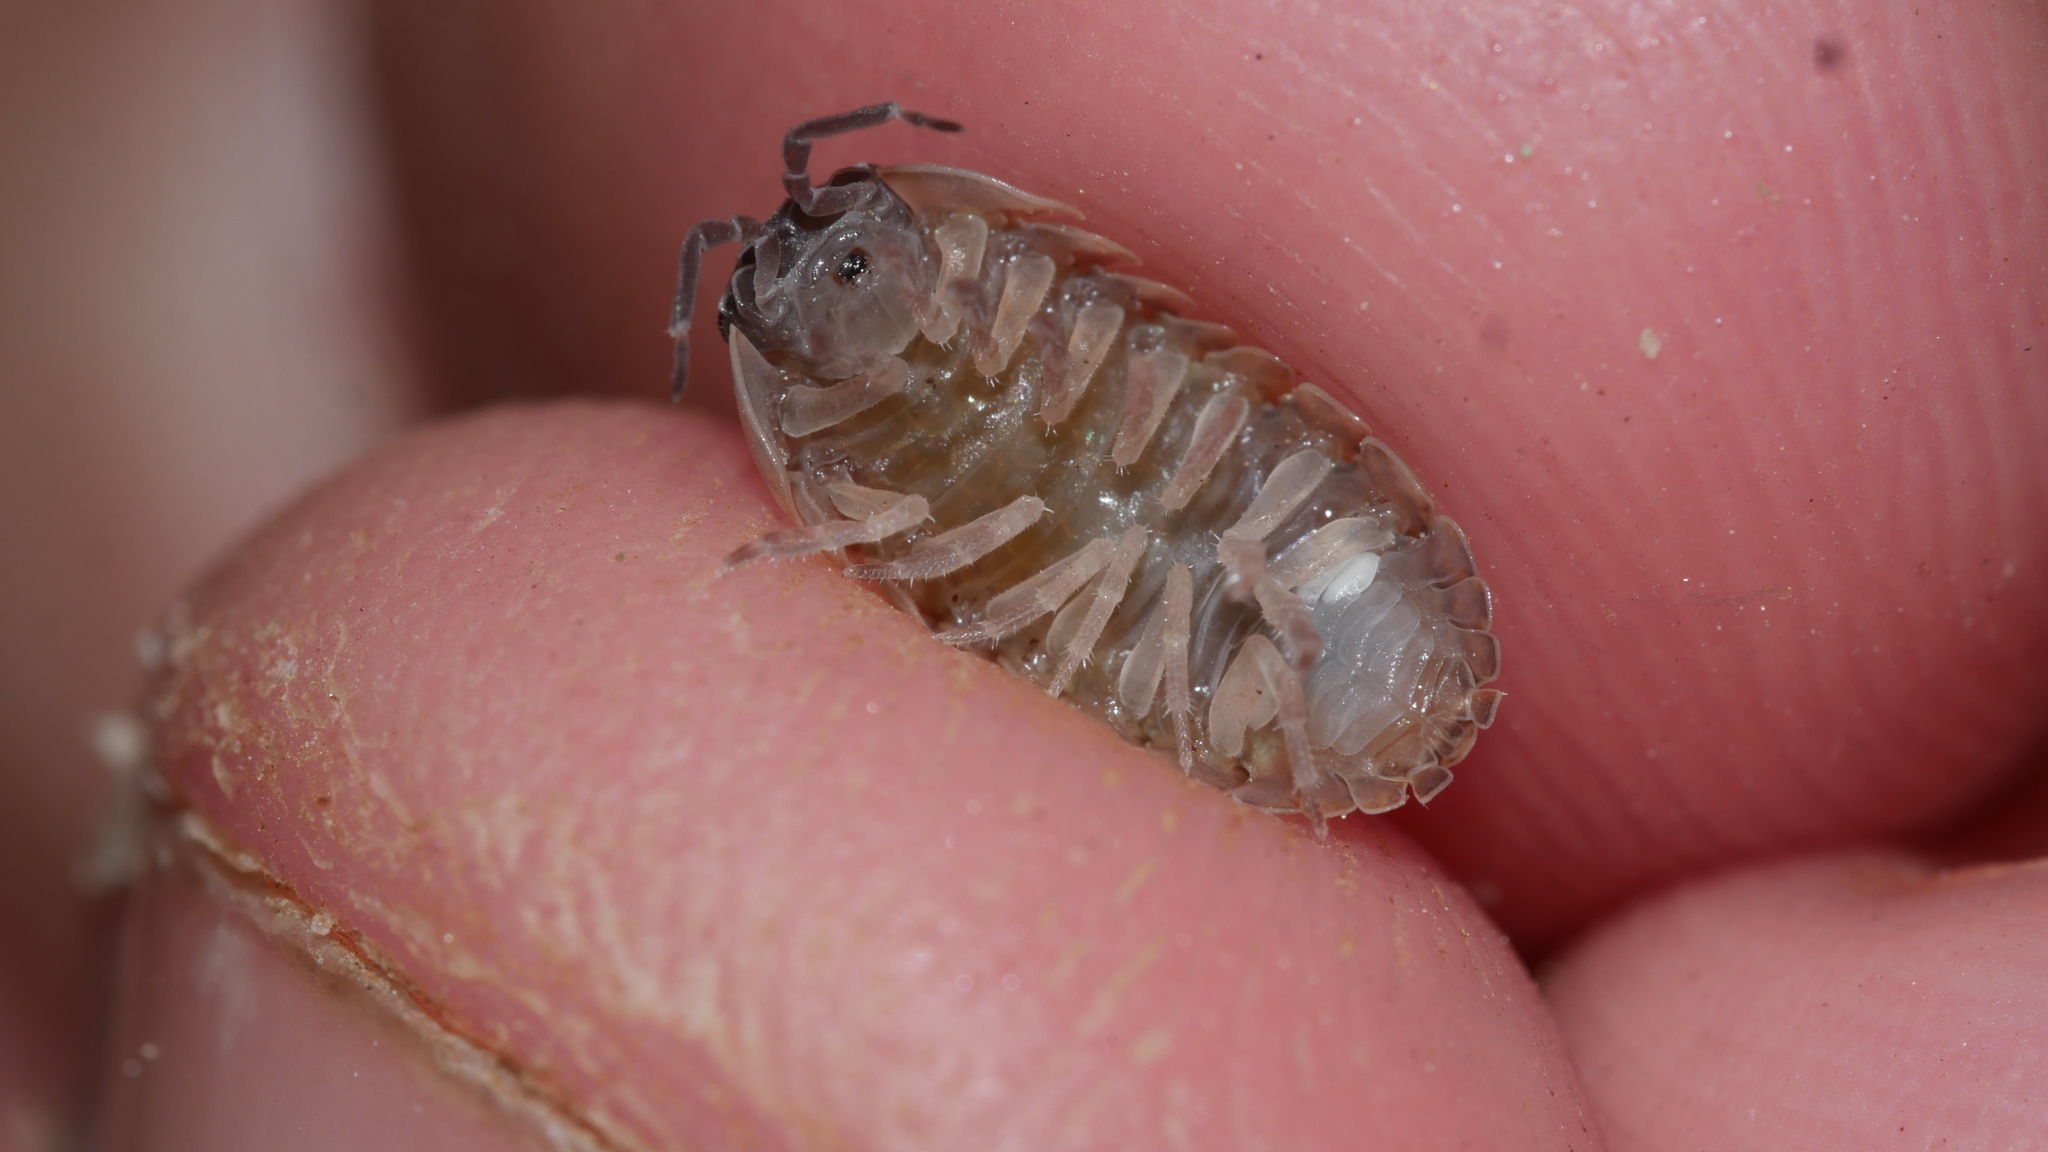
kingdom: Animalia
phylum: Arthropoda
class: Malacostraca
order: Isopoda
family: Armadillidiidae
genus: Armadillidium
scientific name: Armadillidium vulgare
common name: Common pill woodlouse
